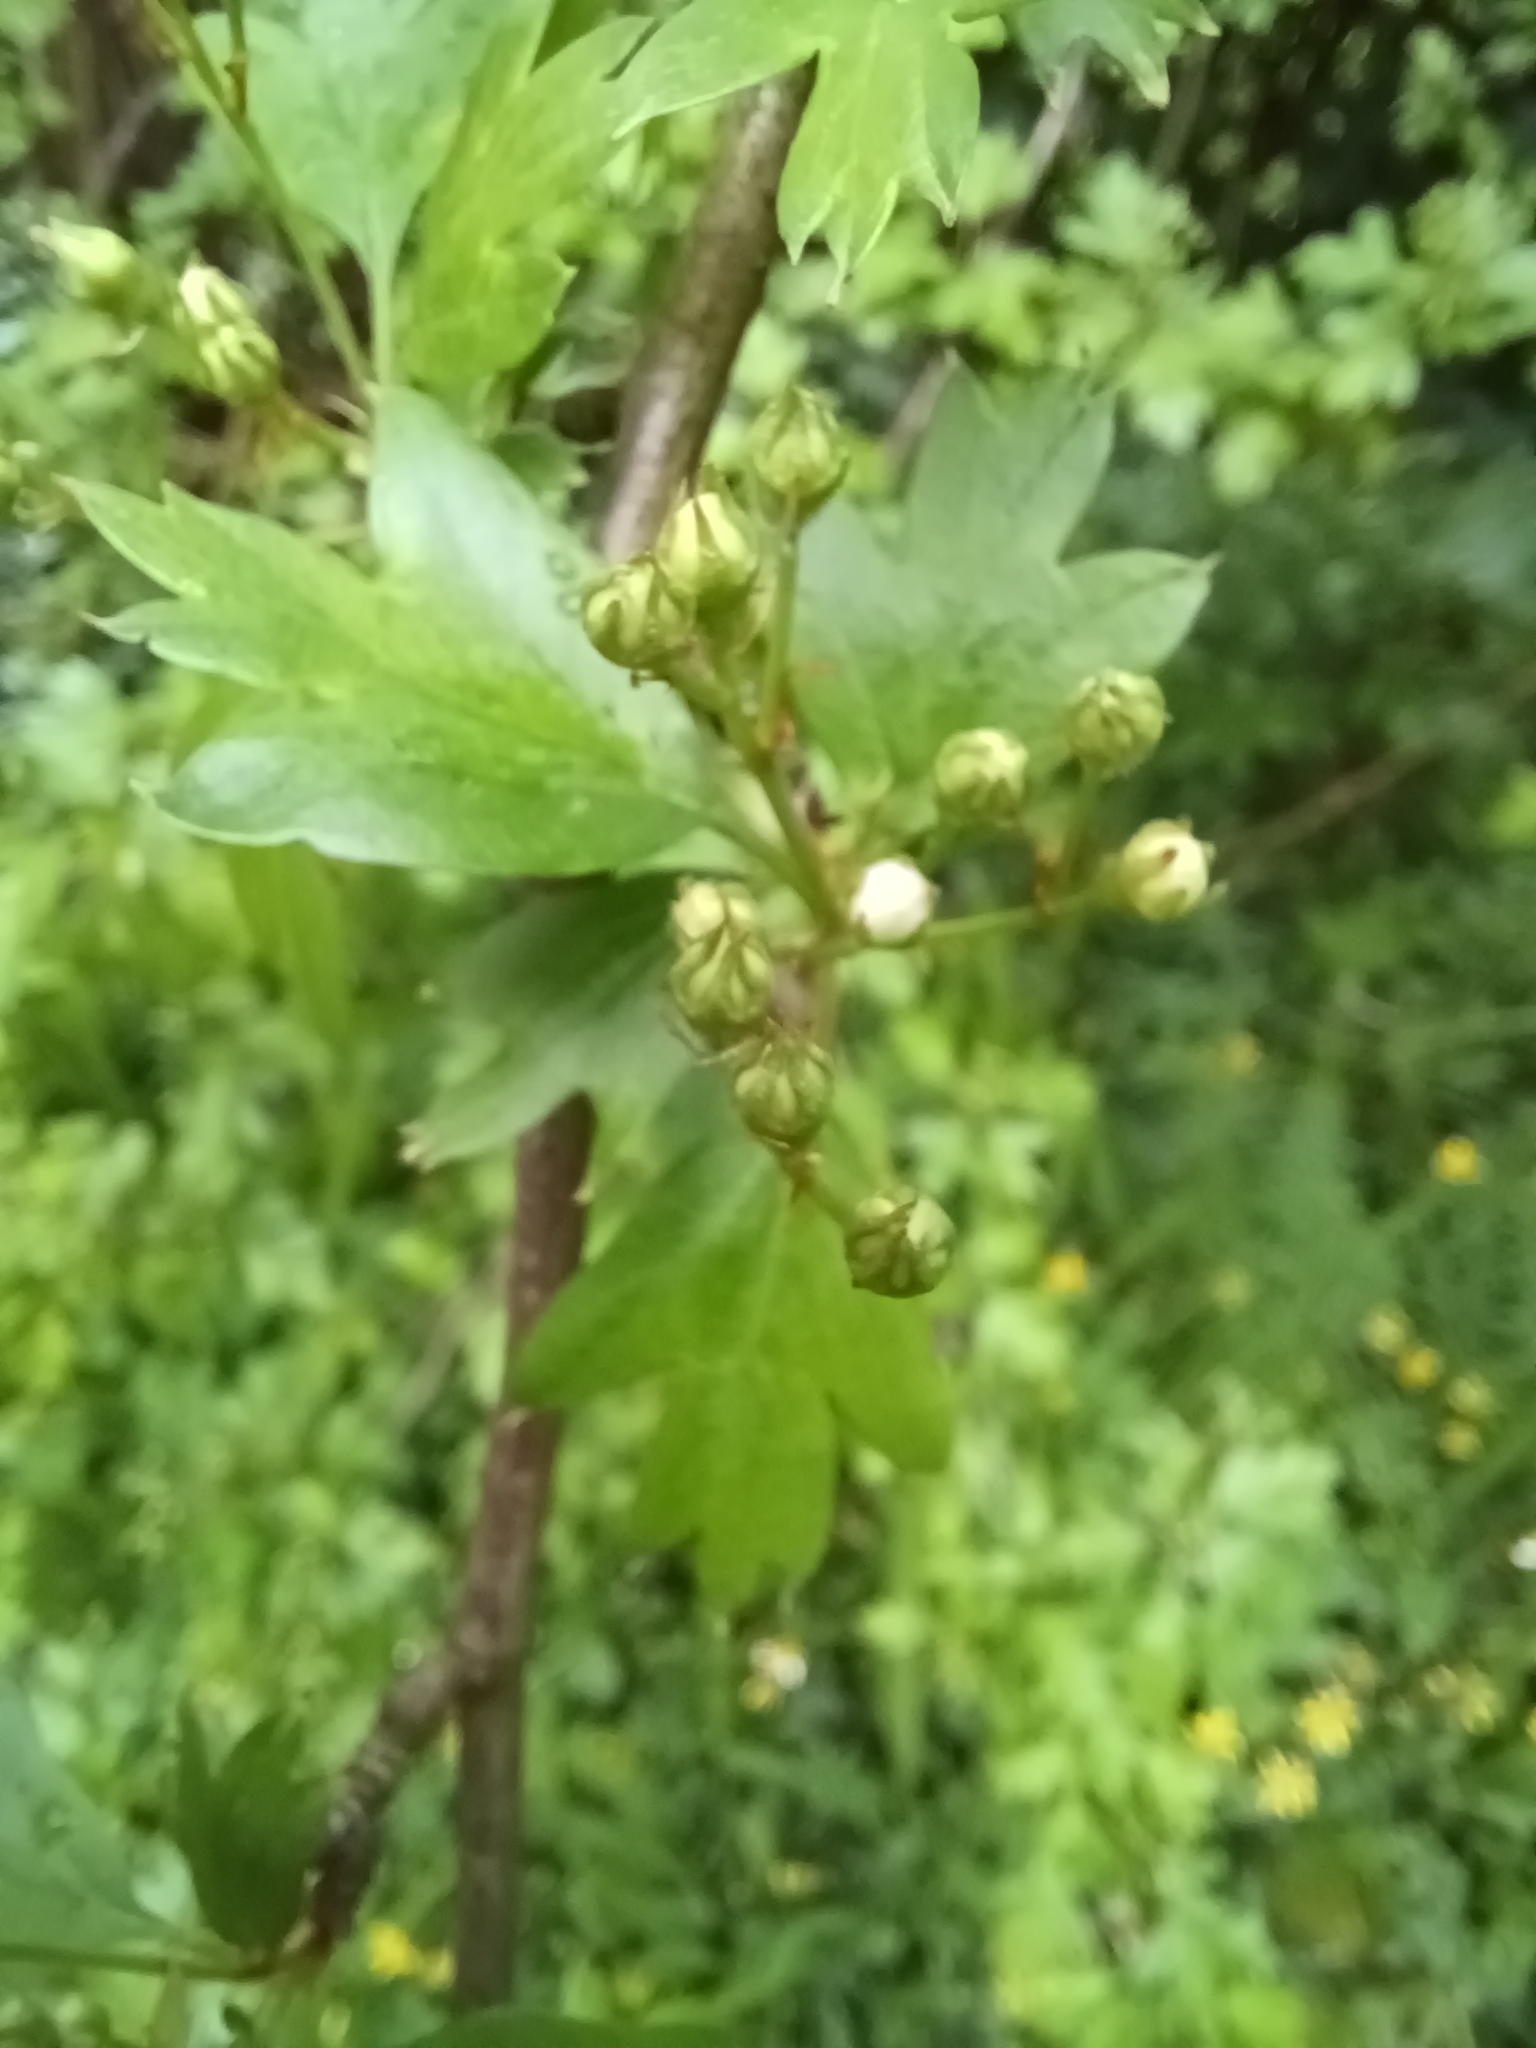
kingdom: Plantae
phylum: Tracheophyta
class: Magnoliopsida
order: Rosales
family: Rosaceae
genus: Crataegus
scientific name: Crataegus monogyna
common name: Hawthorn
